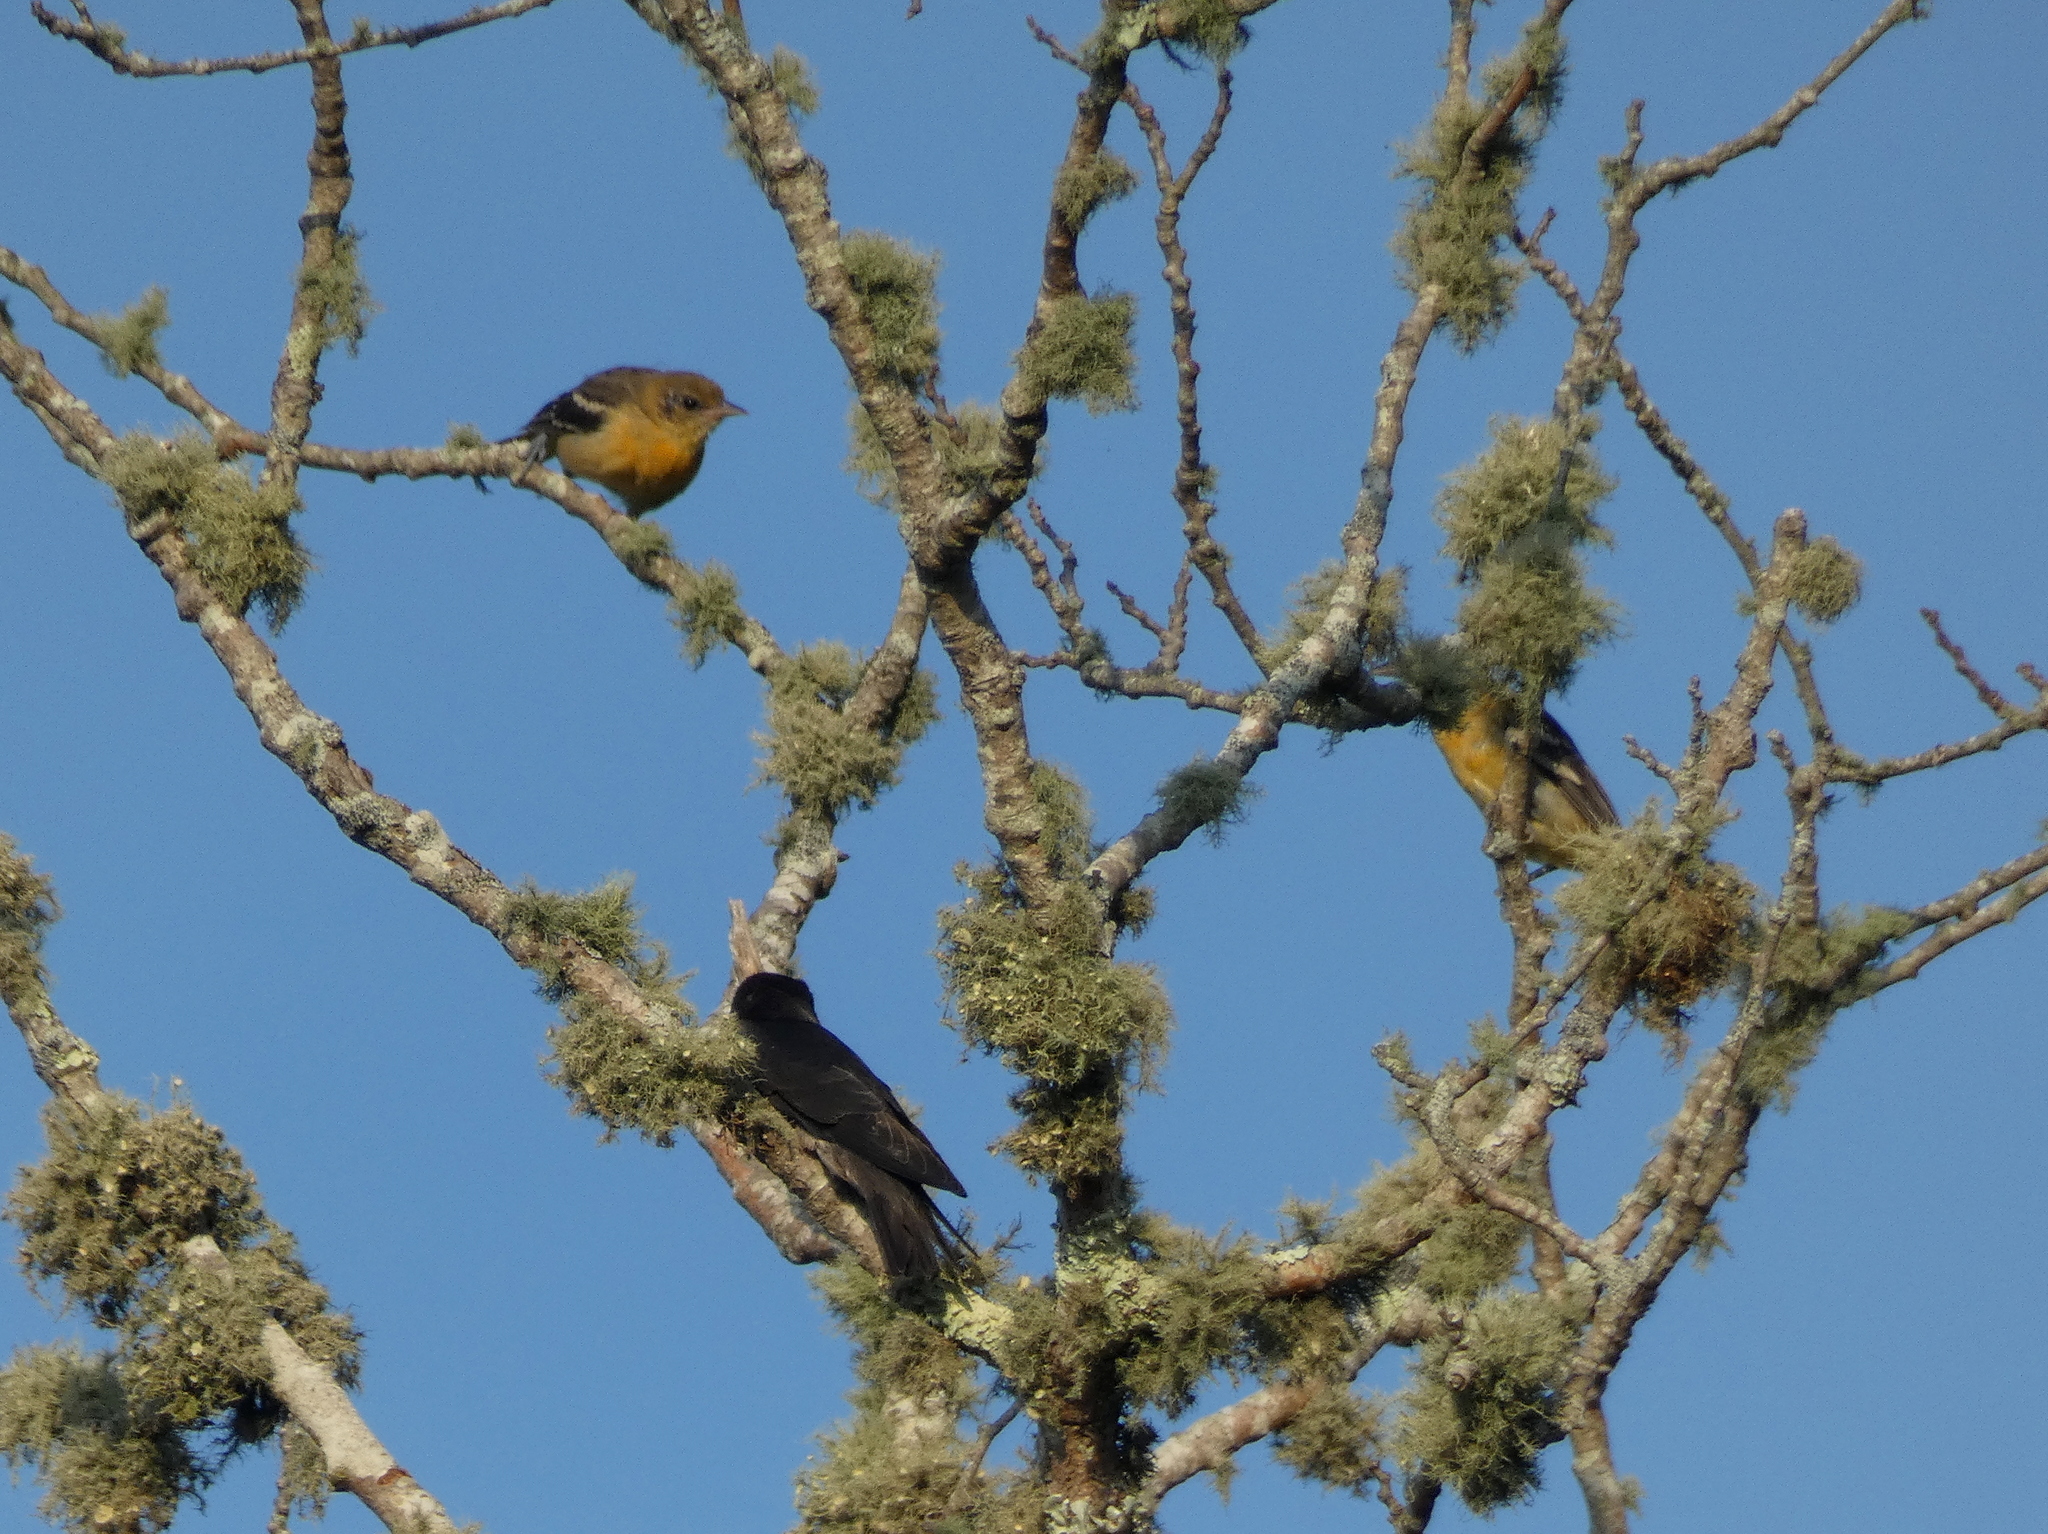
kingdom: Animalia
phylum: Chordata
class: Aves
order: Passeriformes
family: Icteridae
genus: Icterus
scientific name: Icterus galbula
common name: Baltimore oriole
